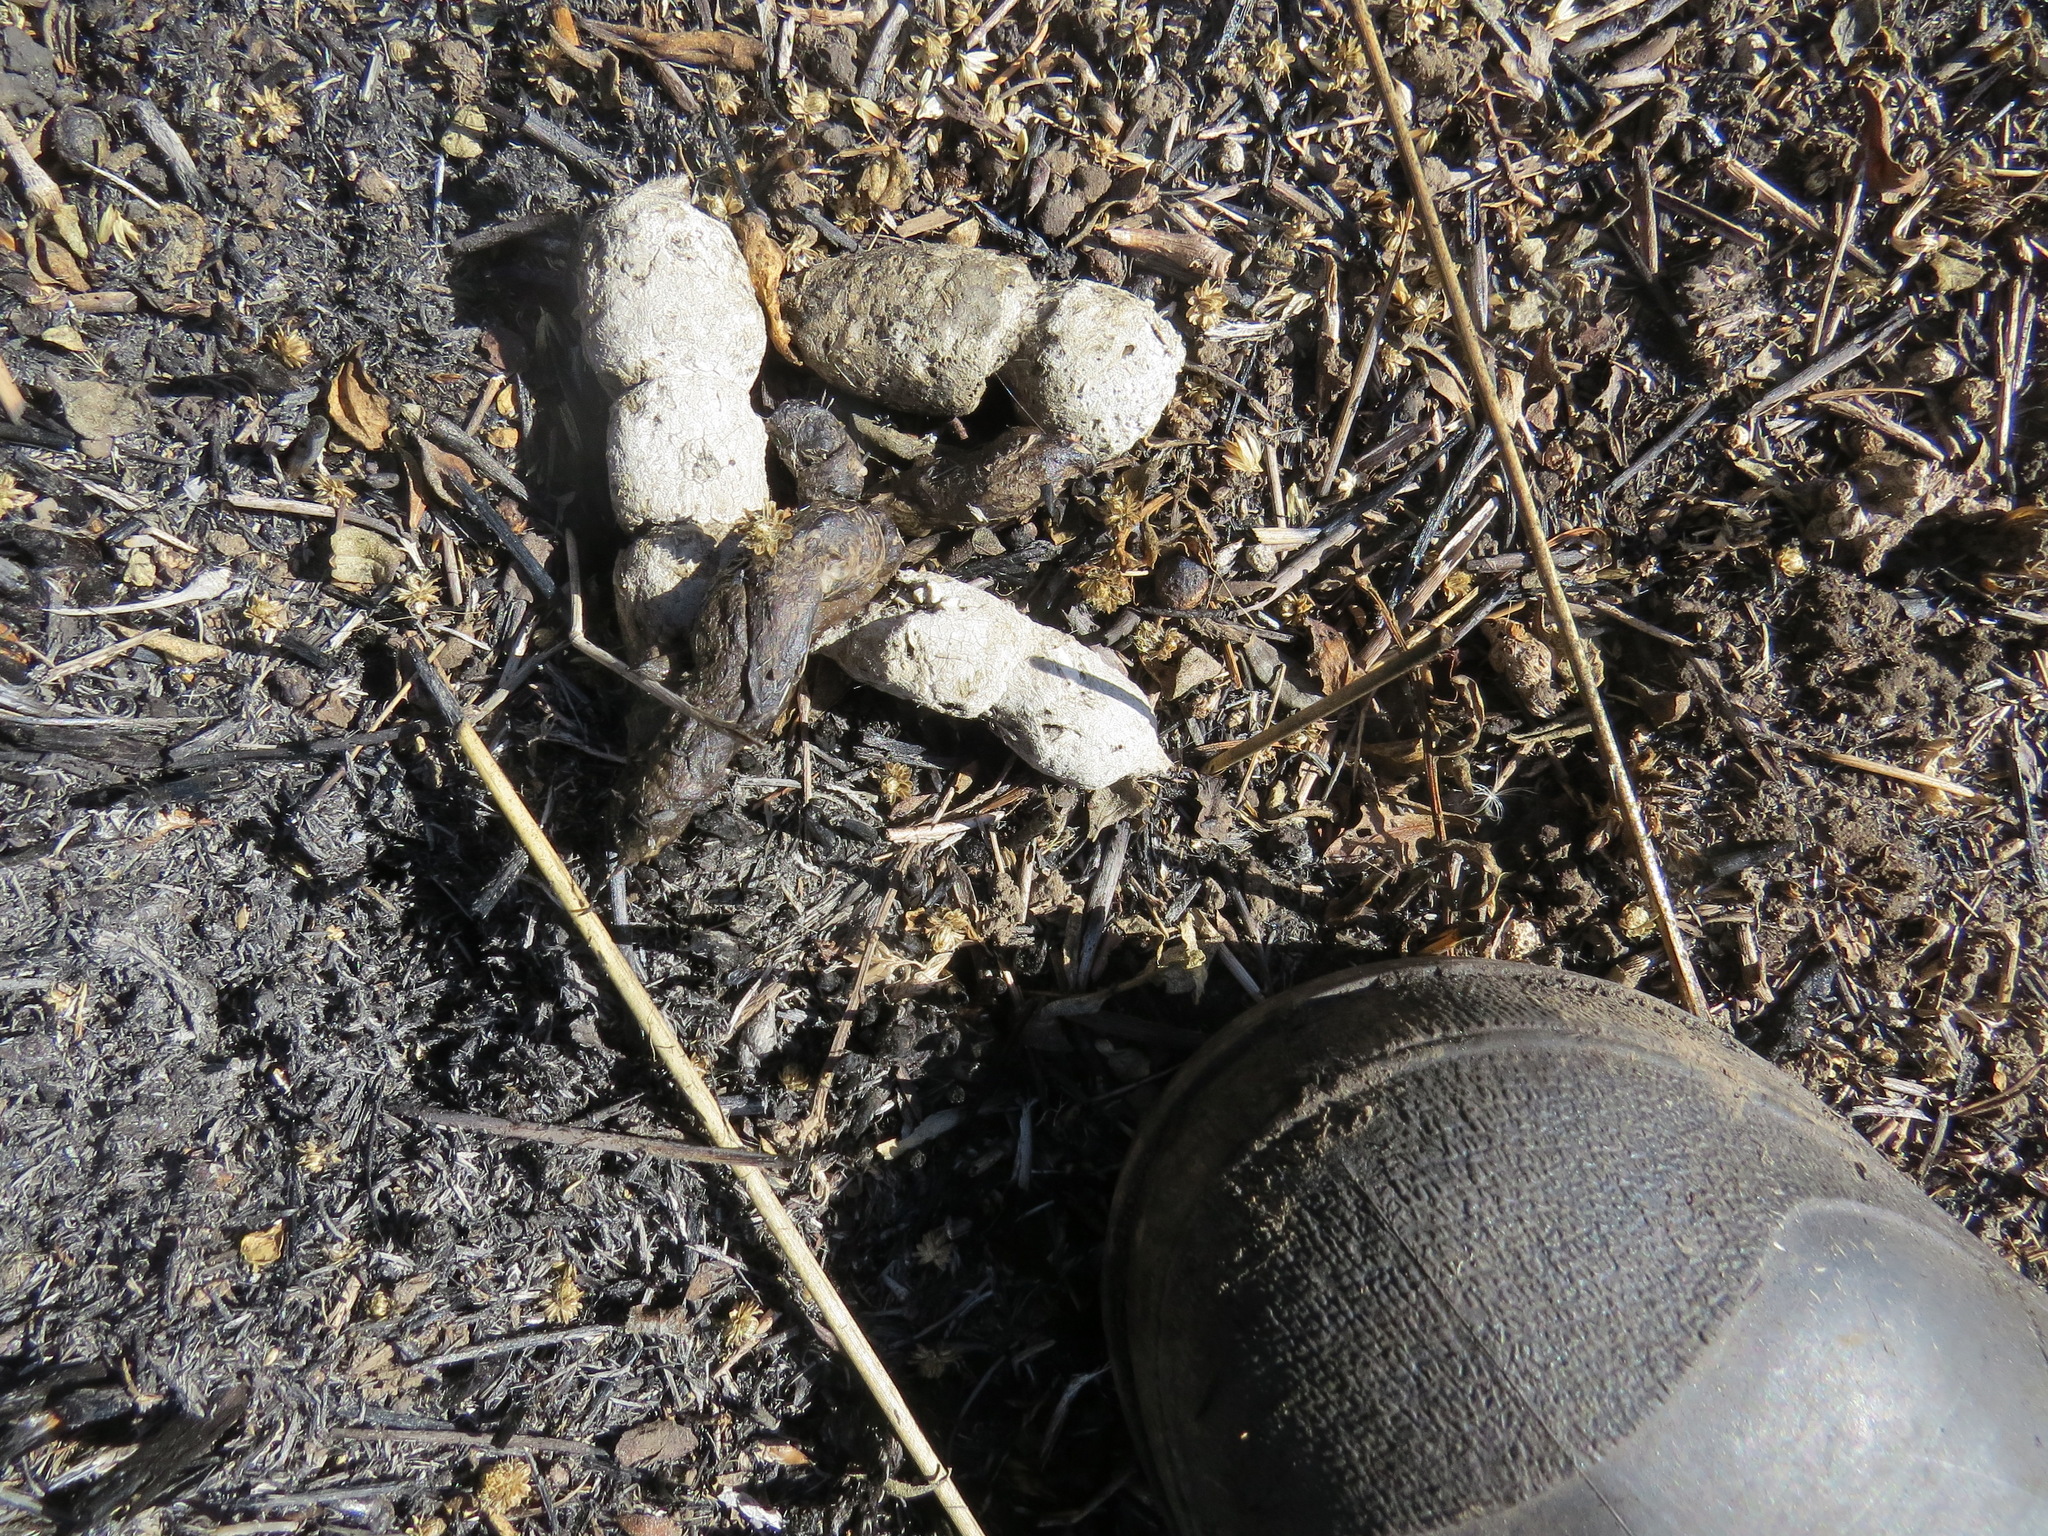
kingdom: Animalia
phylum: Chordata
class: Mammalia
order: Carnivora
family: Canidae
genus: Urocyon
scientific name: Urocyon cinereoargenteus
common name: Gray fox
